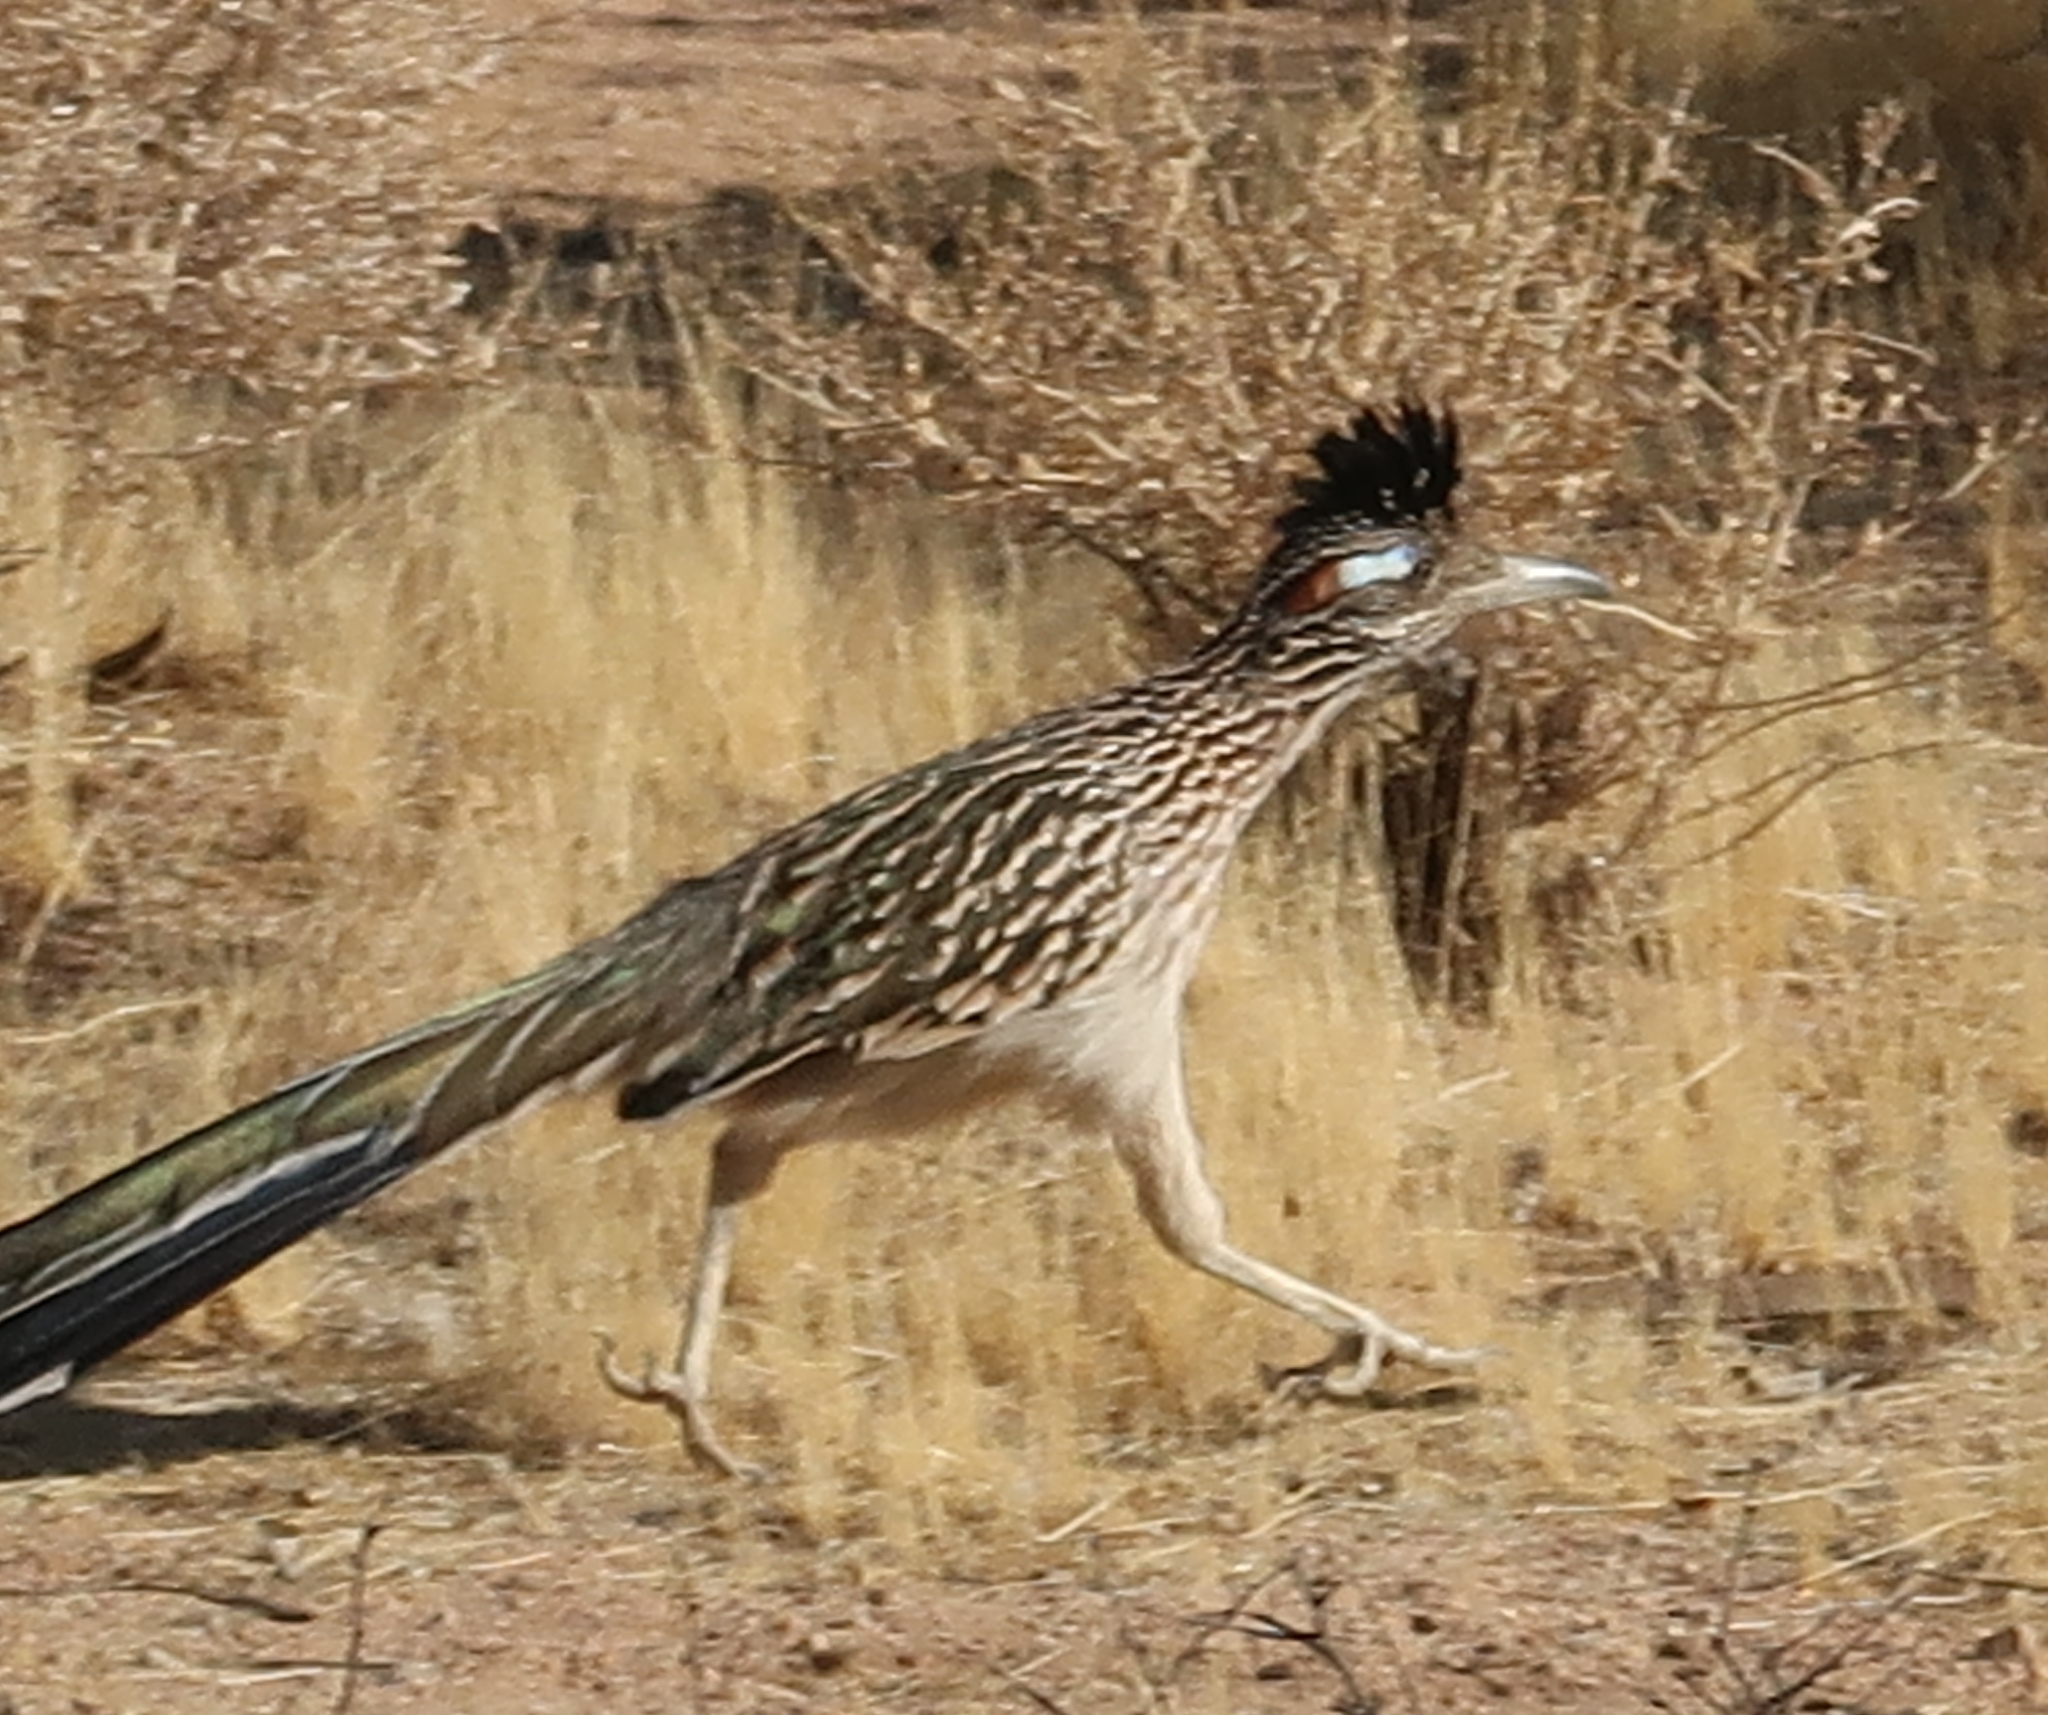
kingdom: Animalia
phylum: Chordata
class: Aves
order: Cuculiformes
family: Cuculidae
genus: Geococcyx
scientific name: Geococcyx californianus
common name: Greater roadrunner
